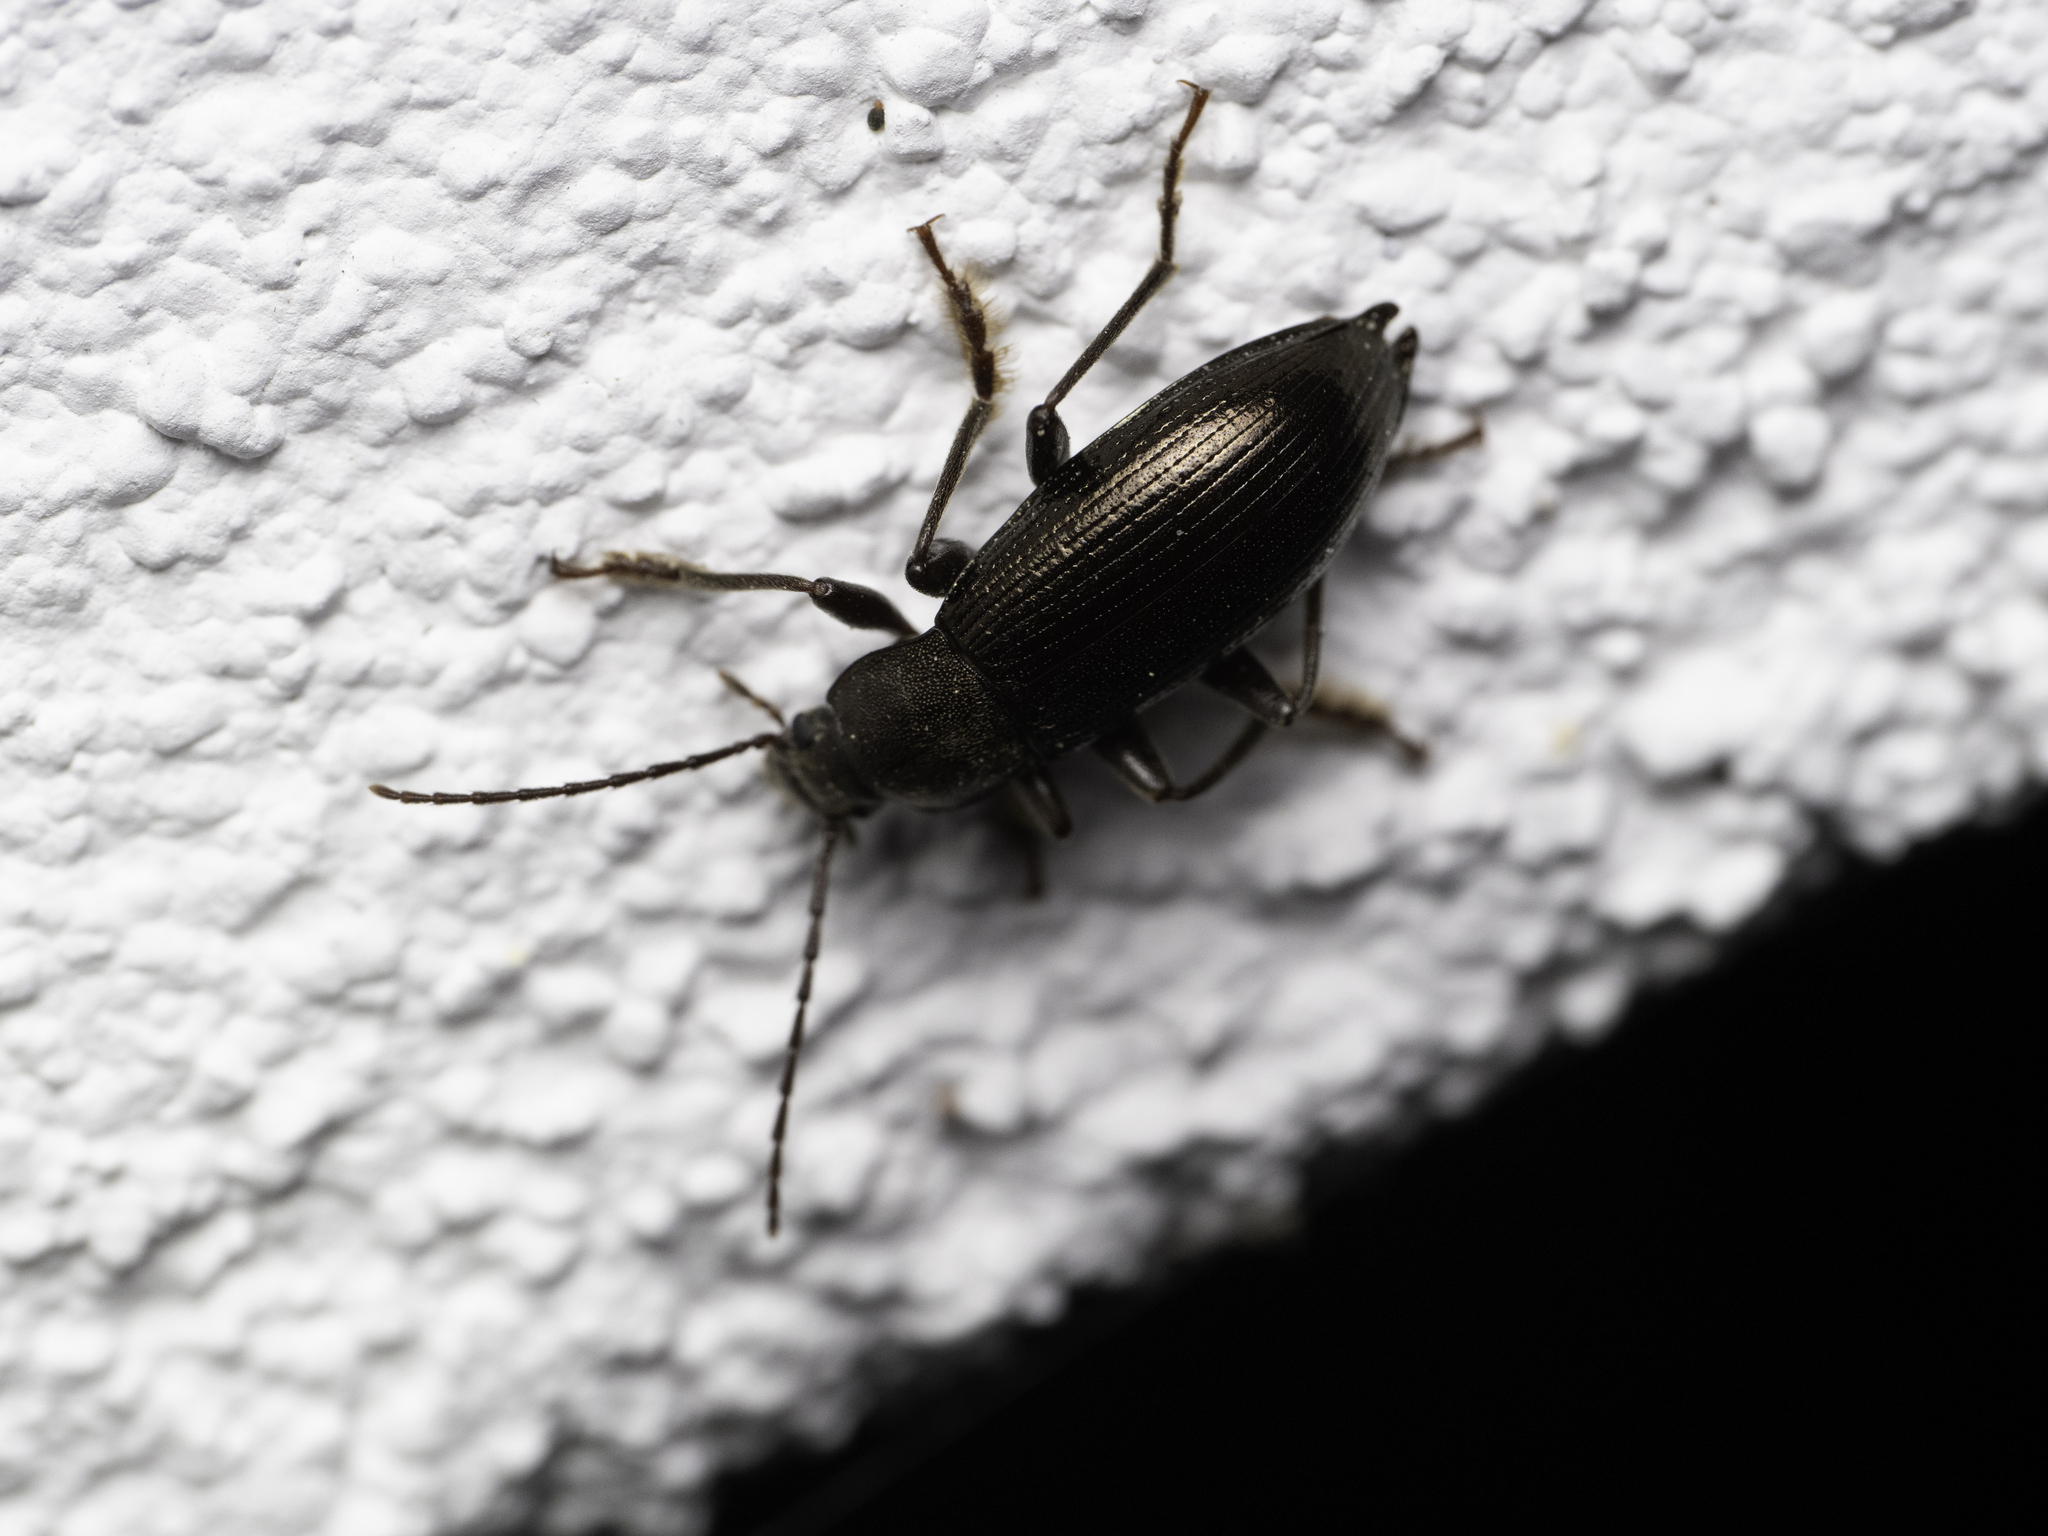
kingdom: Animalia
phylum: Arthropoda
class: Insecta
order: Coleoptera
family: Tenebrionidae
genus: Stenomax
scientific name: Stenomax aeneus
